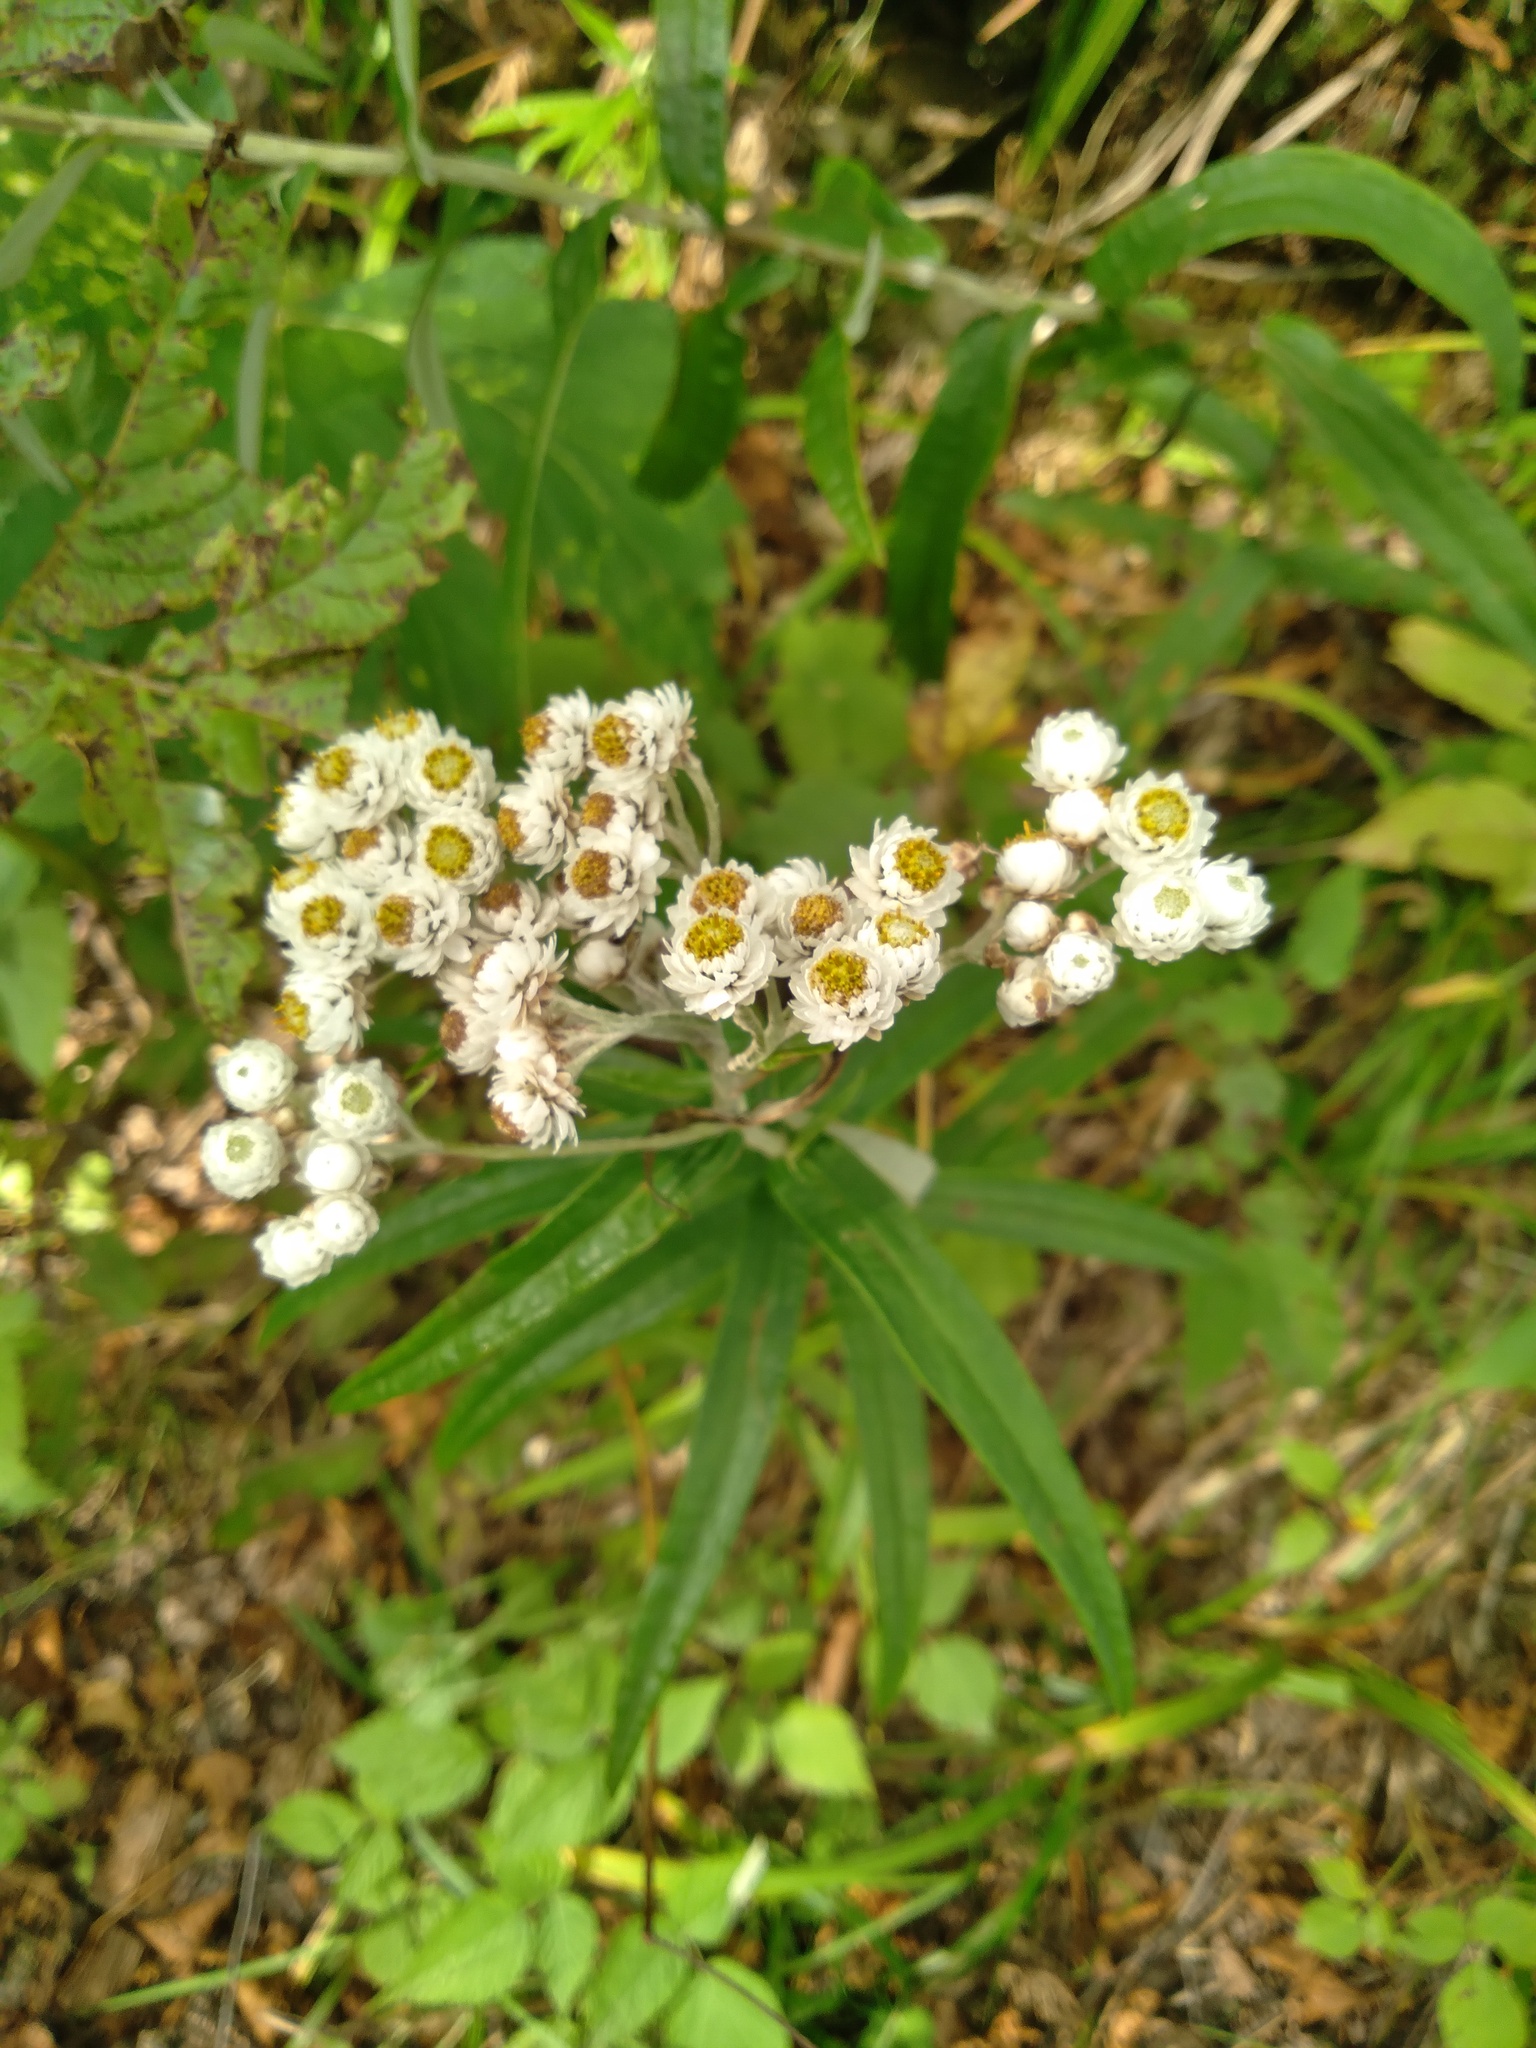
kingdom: Plantae
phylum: Tracheophyta
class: Magnoliopsida
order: Asterales
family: Asteraceae
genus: Anaphalis
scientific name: Anaphalis margaritacea
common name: Pearly everlasting
